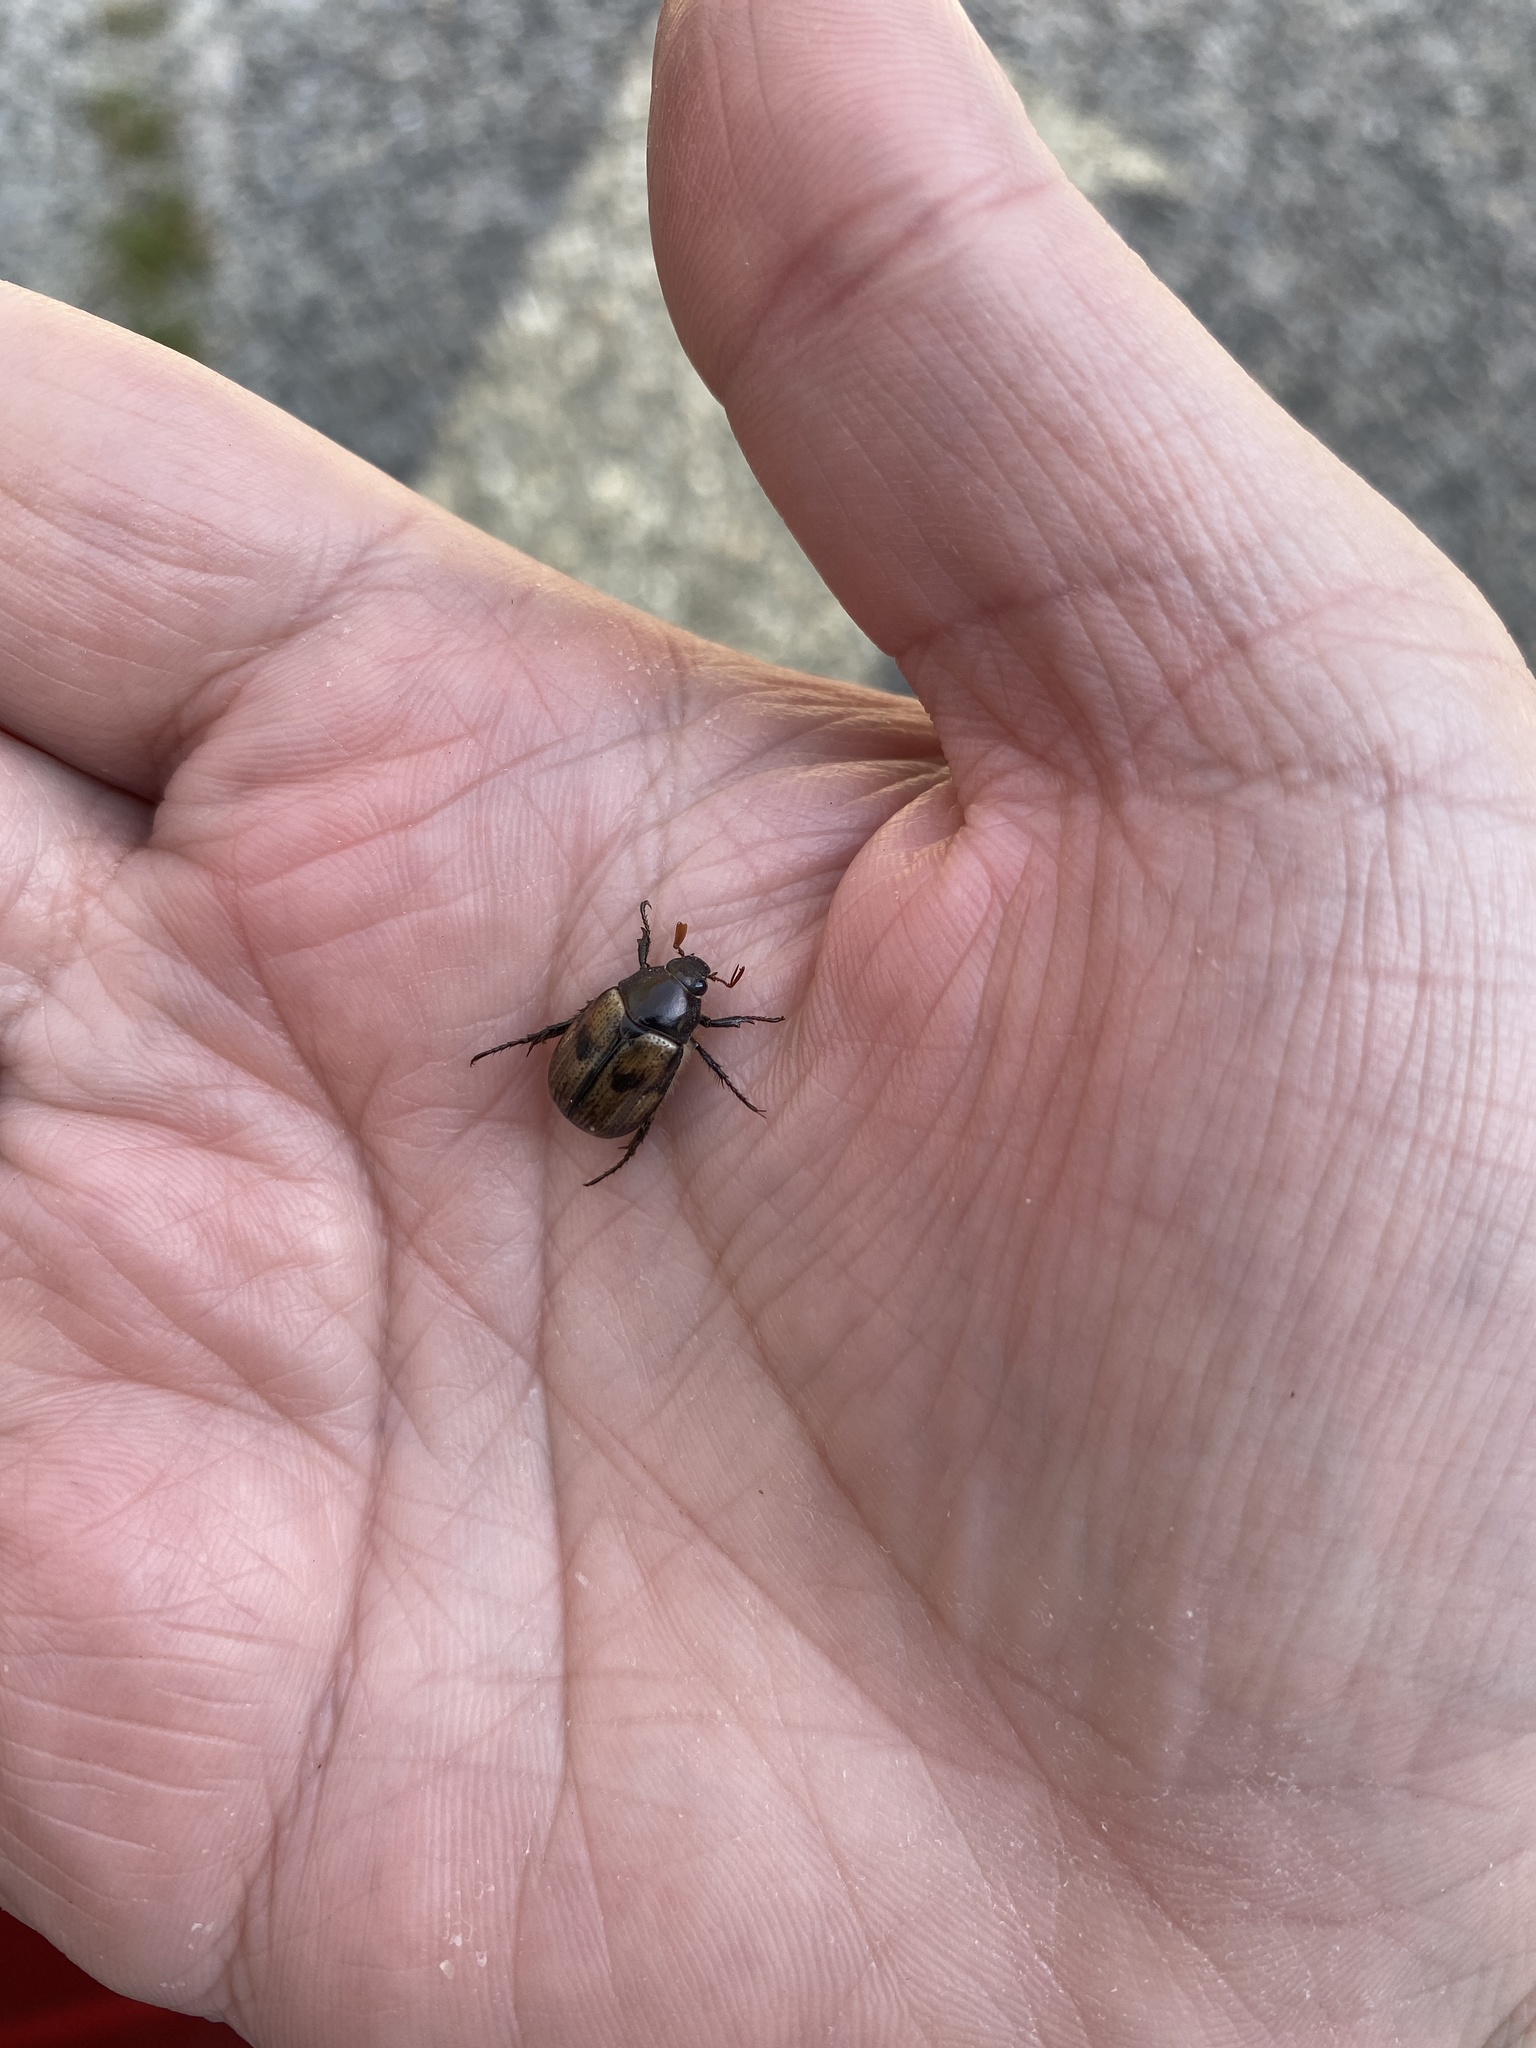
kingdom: Animalia
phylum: Arthropoda
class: Insecta
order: Coleoptera
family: Scarabaeidae
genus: Exomala
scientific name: Exomala orientalis
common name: Oriental beetle
